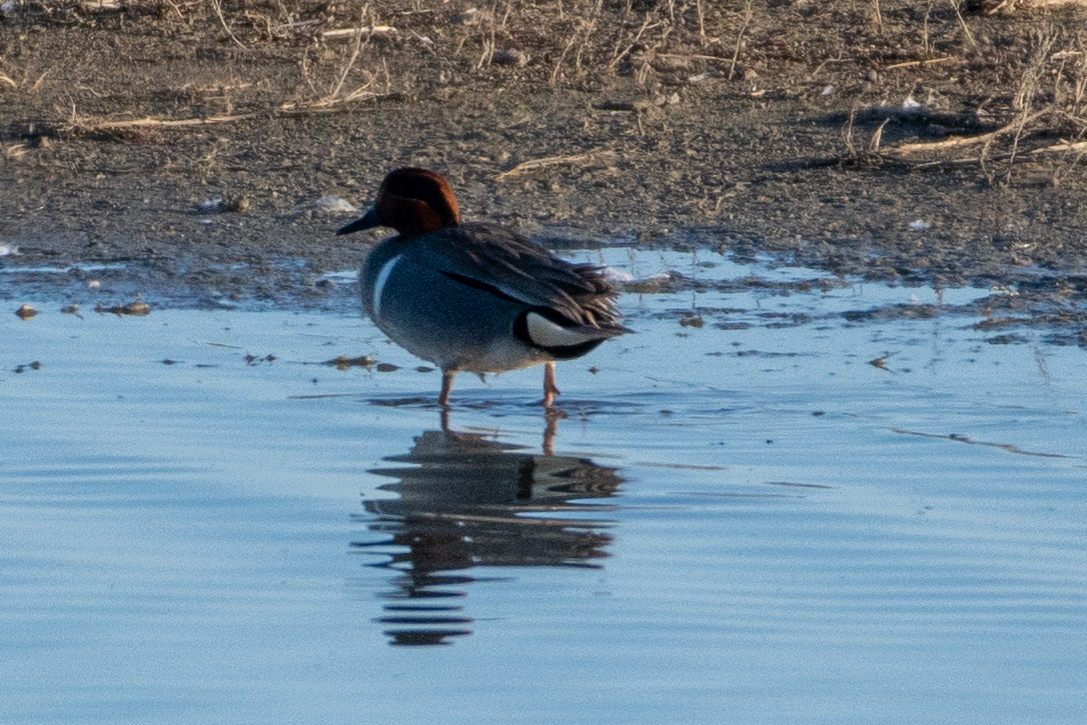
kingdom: Animalia
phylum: Chordata
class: Aves
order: Anseriformes
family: Anatidae
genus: Anas
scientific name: Anas crecca
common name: Eurasian teal
